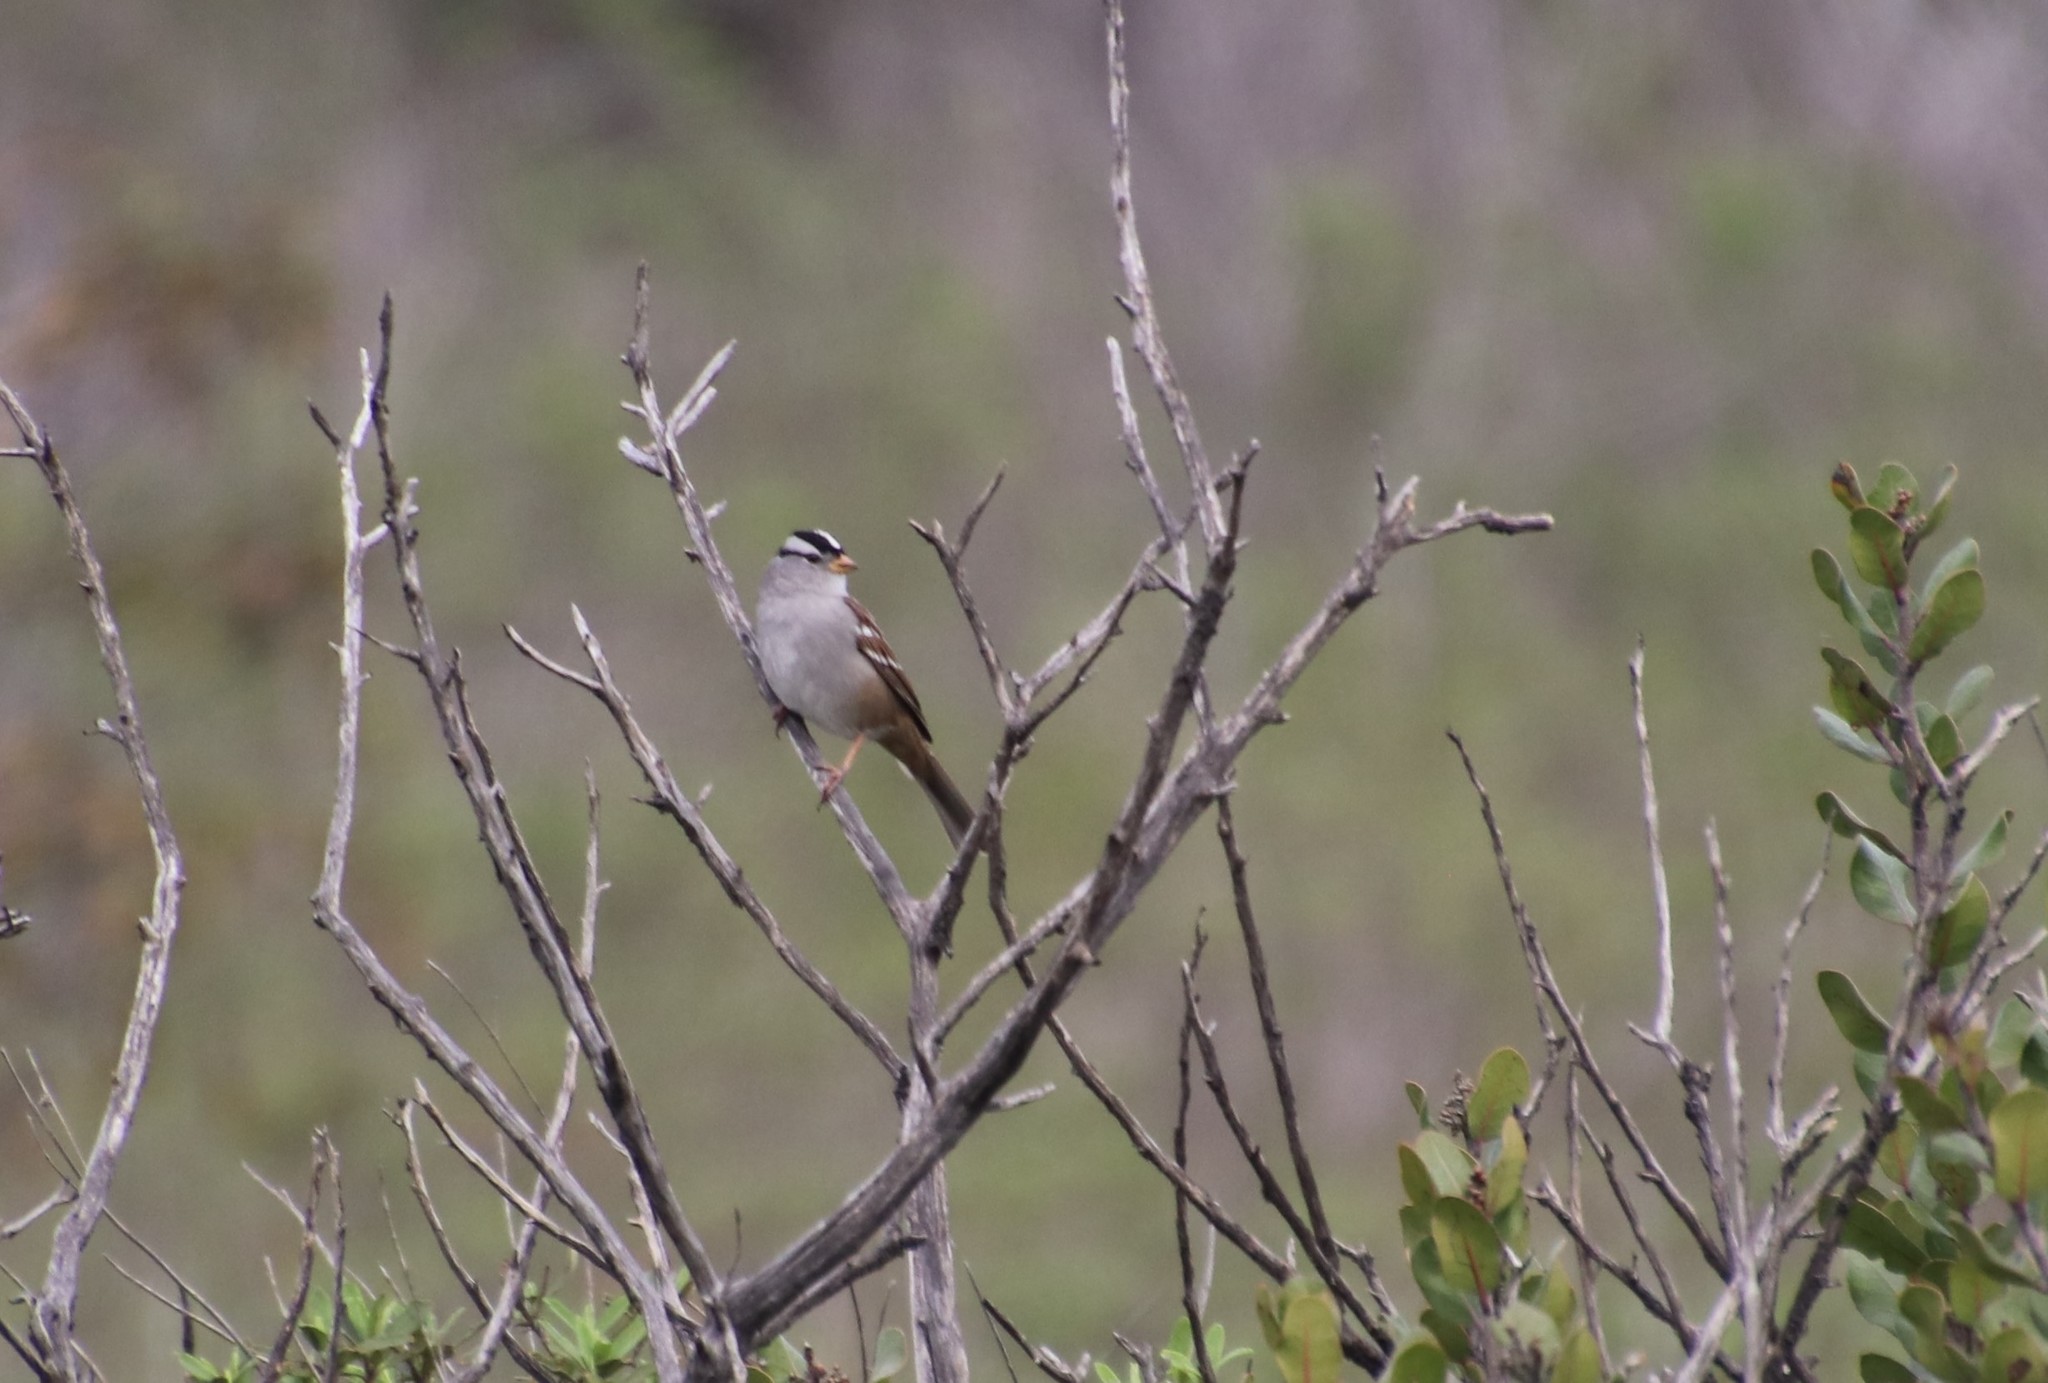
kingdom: Animalia
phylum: Chordata
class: Aves
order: Passeriformes
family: Passerellidae
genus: Zonotrichia
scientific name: Zonotrichia leucophrys
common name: White-crowned sparrow
